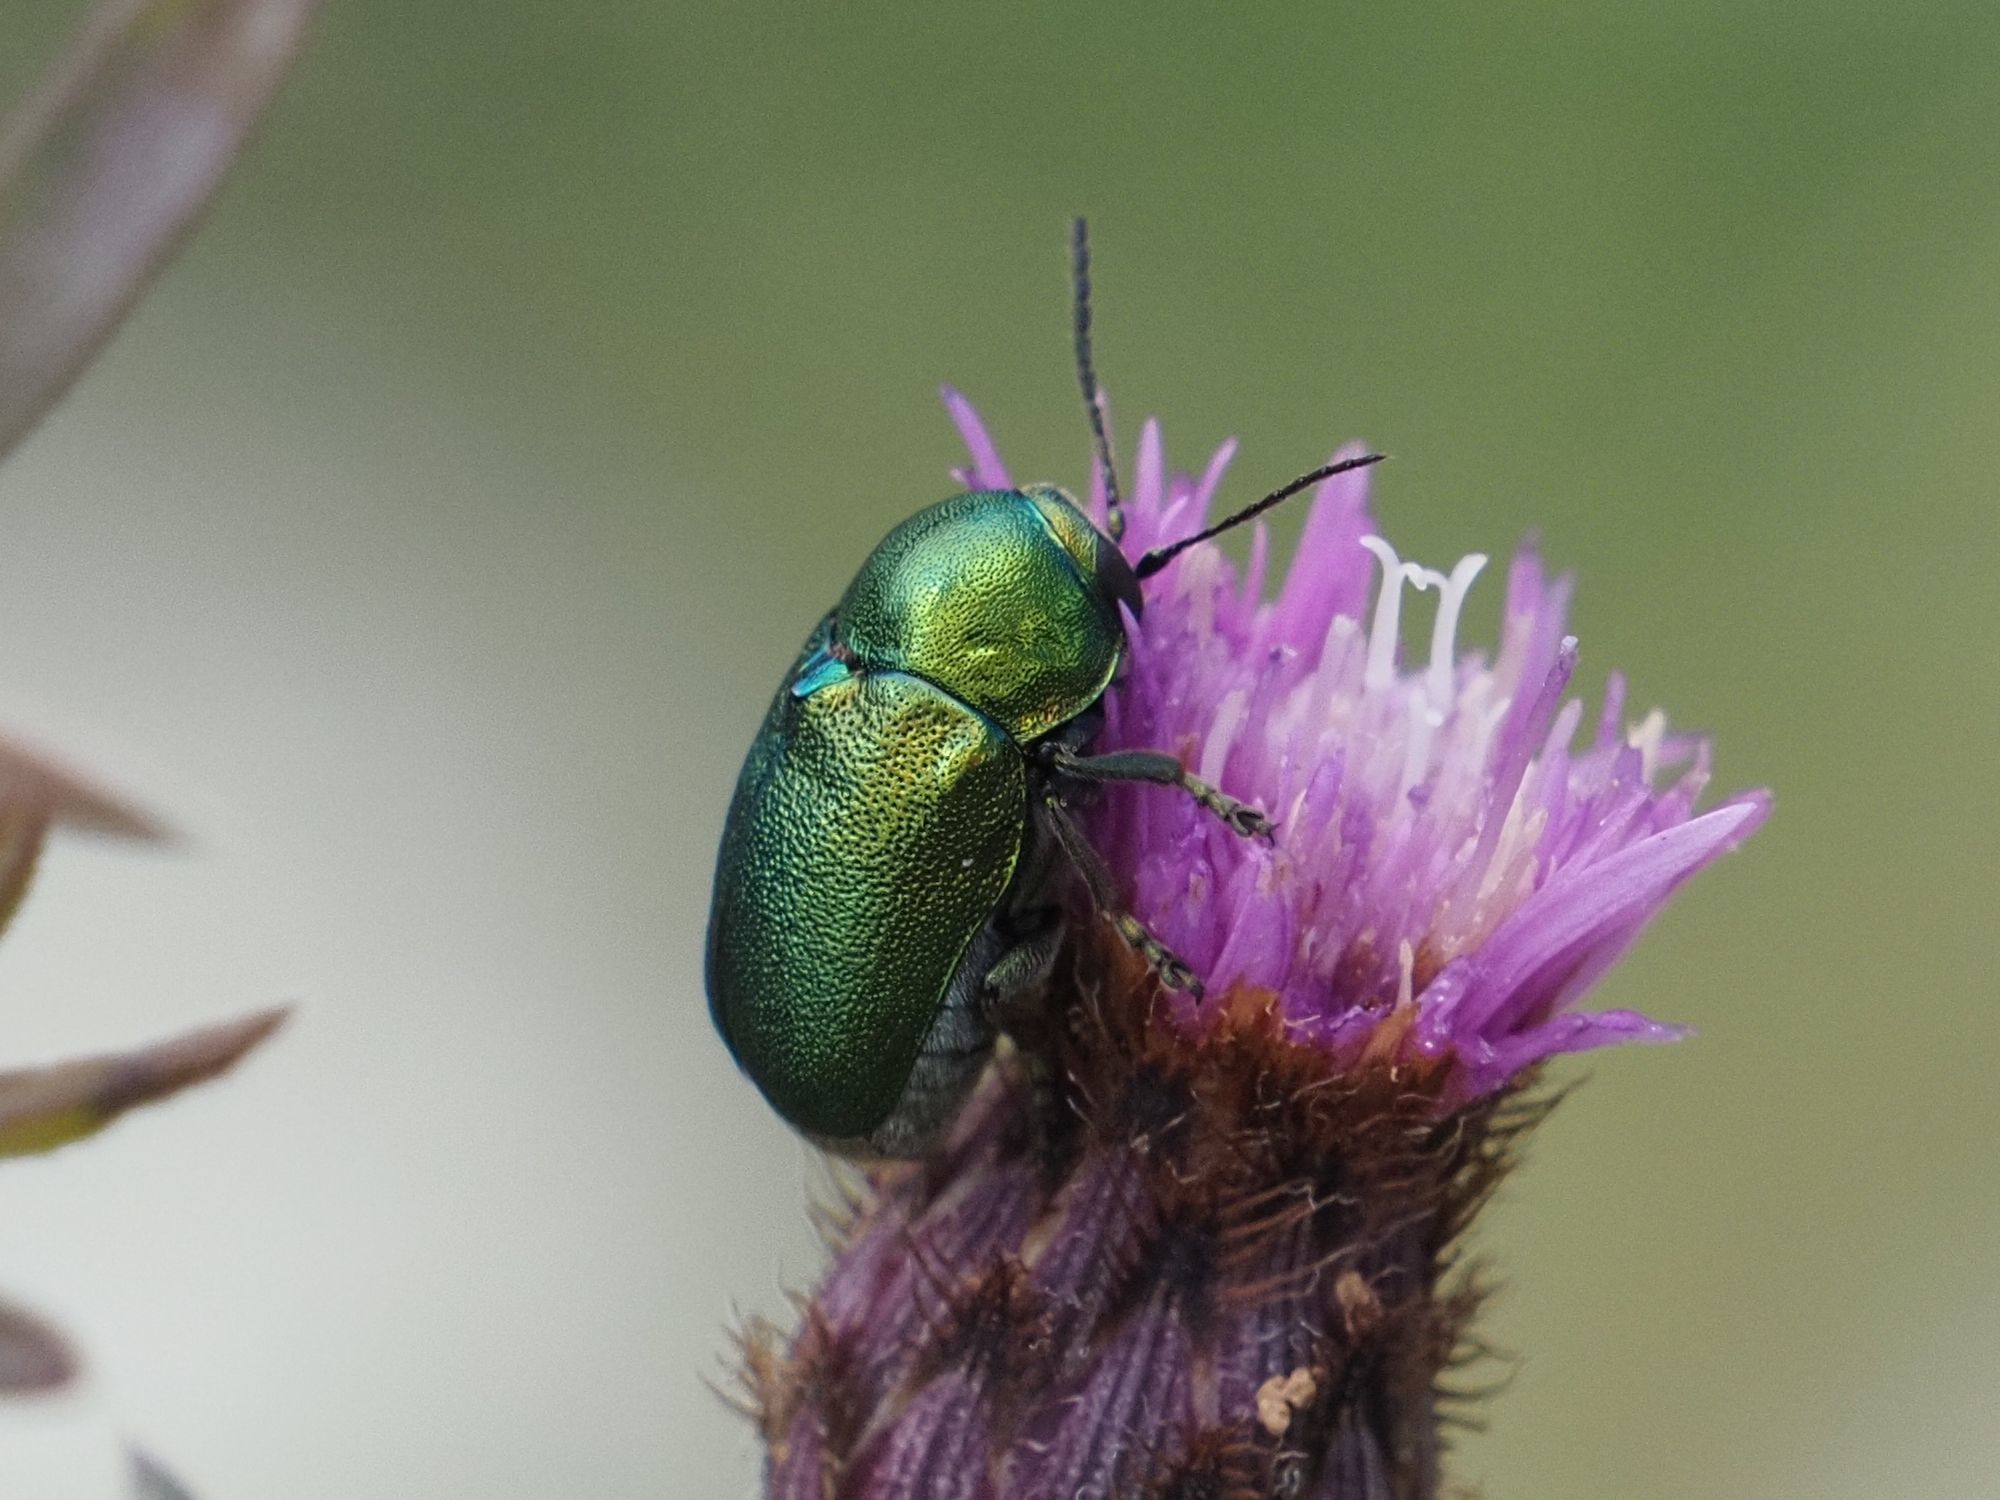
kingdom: Animalia
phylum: Arthropoda
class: Insecta
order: Coleoptera
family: Chrysomelidae
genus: Cryptocephalus
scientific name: Cryptocephalus
